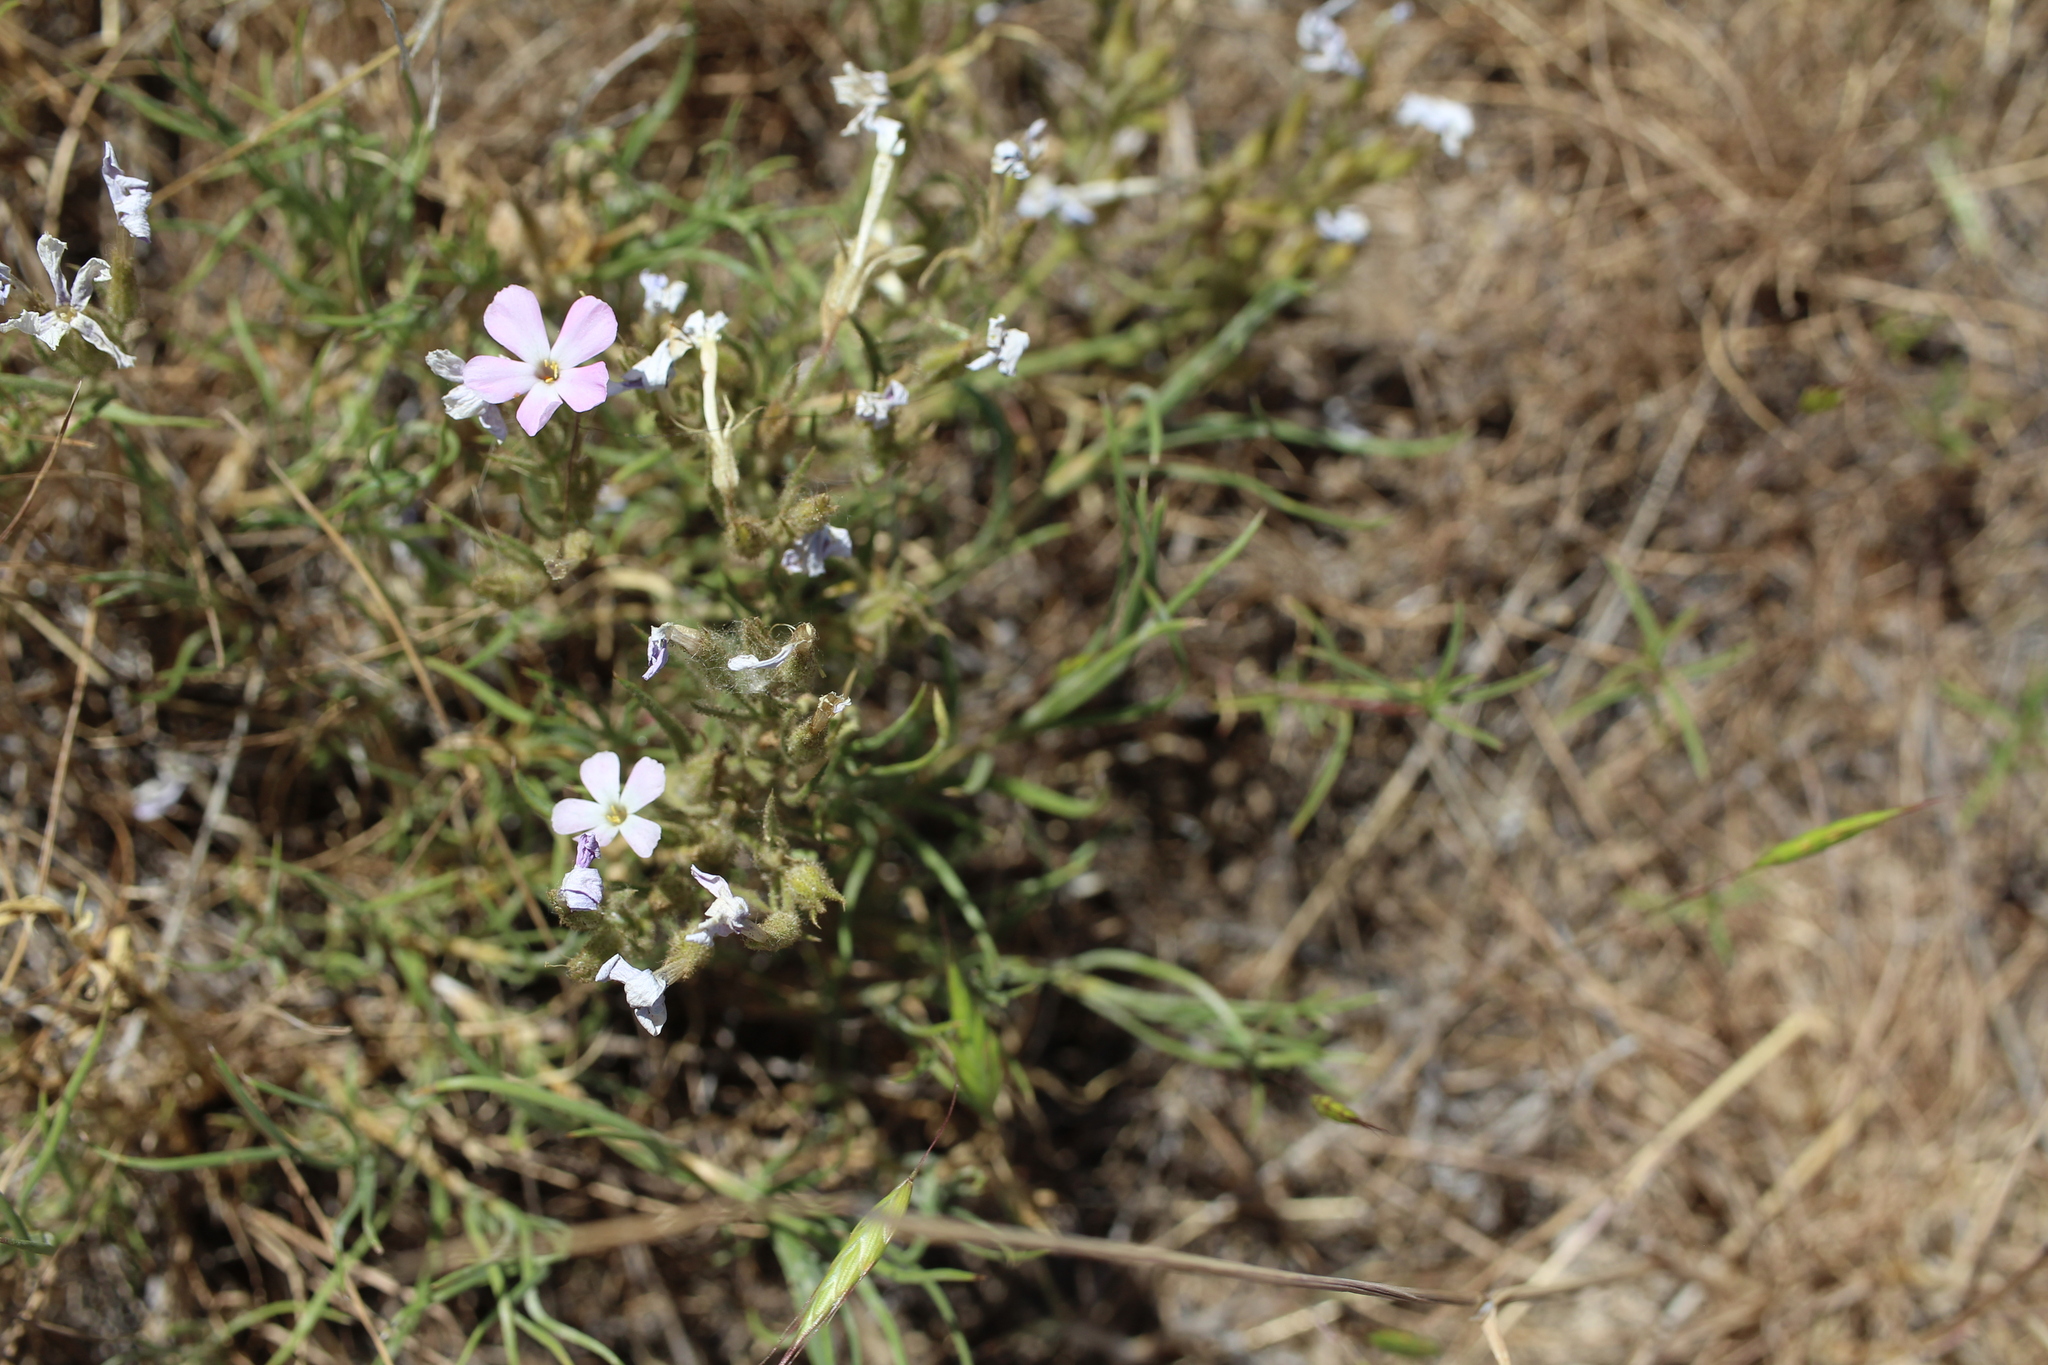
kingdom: Plantae
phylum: Tracheophyta
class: Magnoliopsida
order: Ericales
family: Polemoniaceae
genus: Phlox
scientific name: Phlox longifolia
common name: Longleaf phlox
